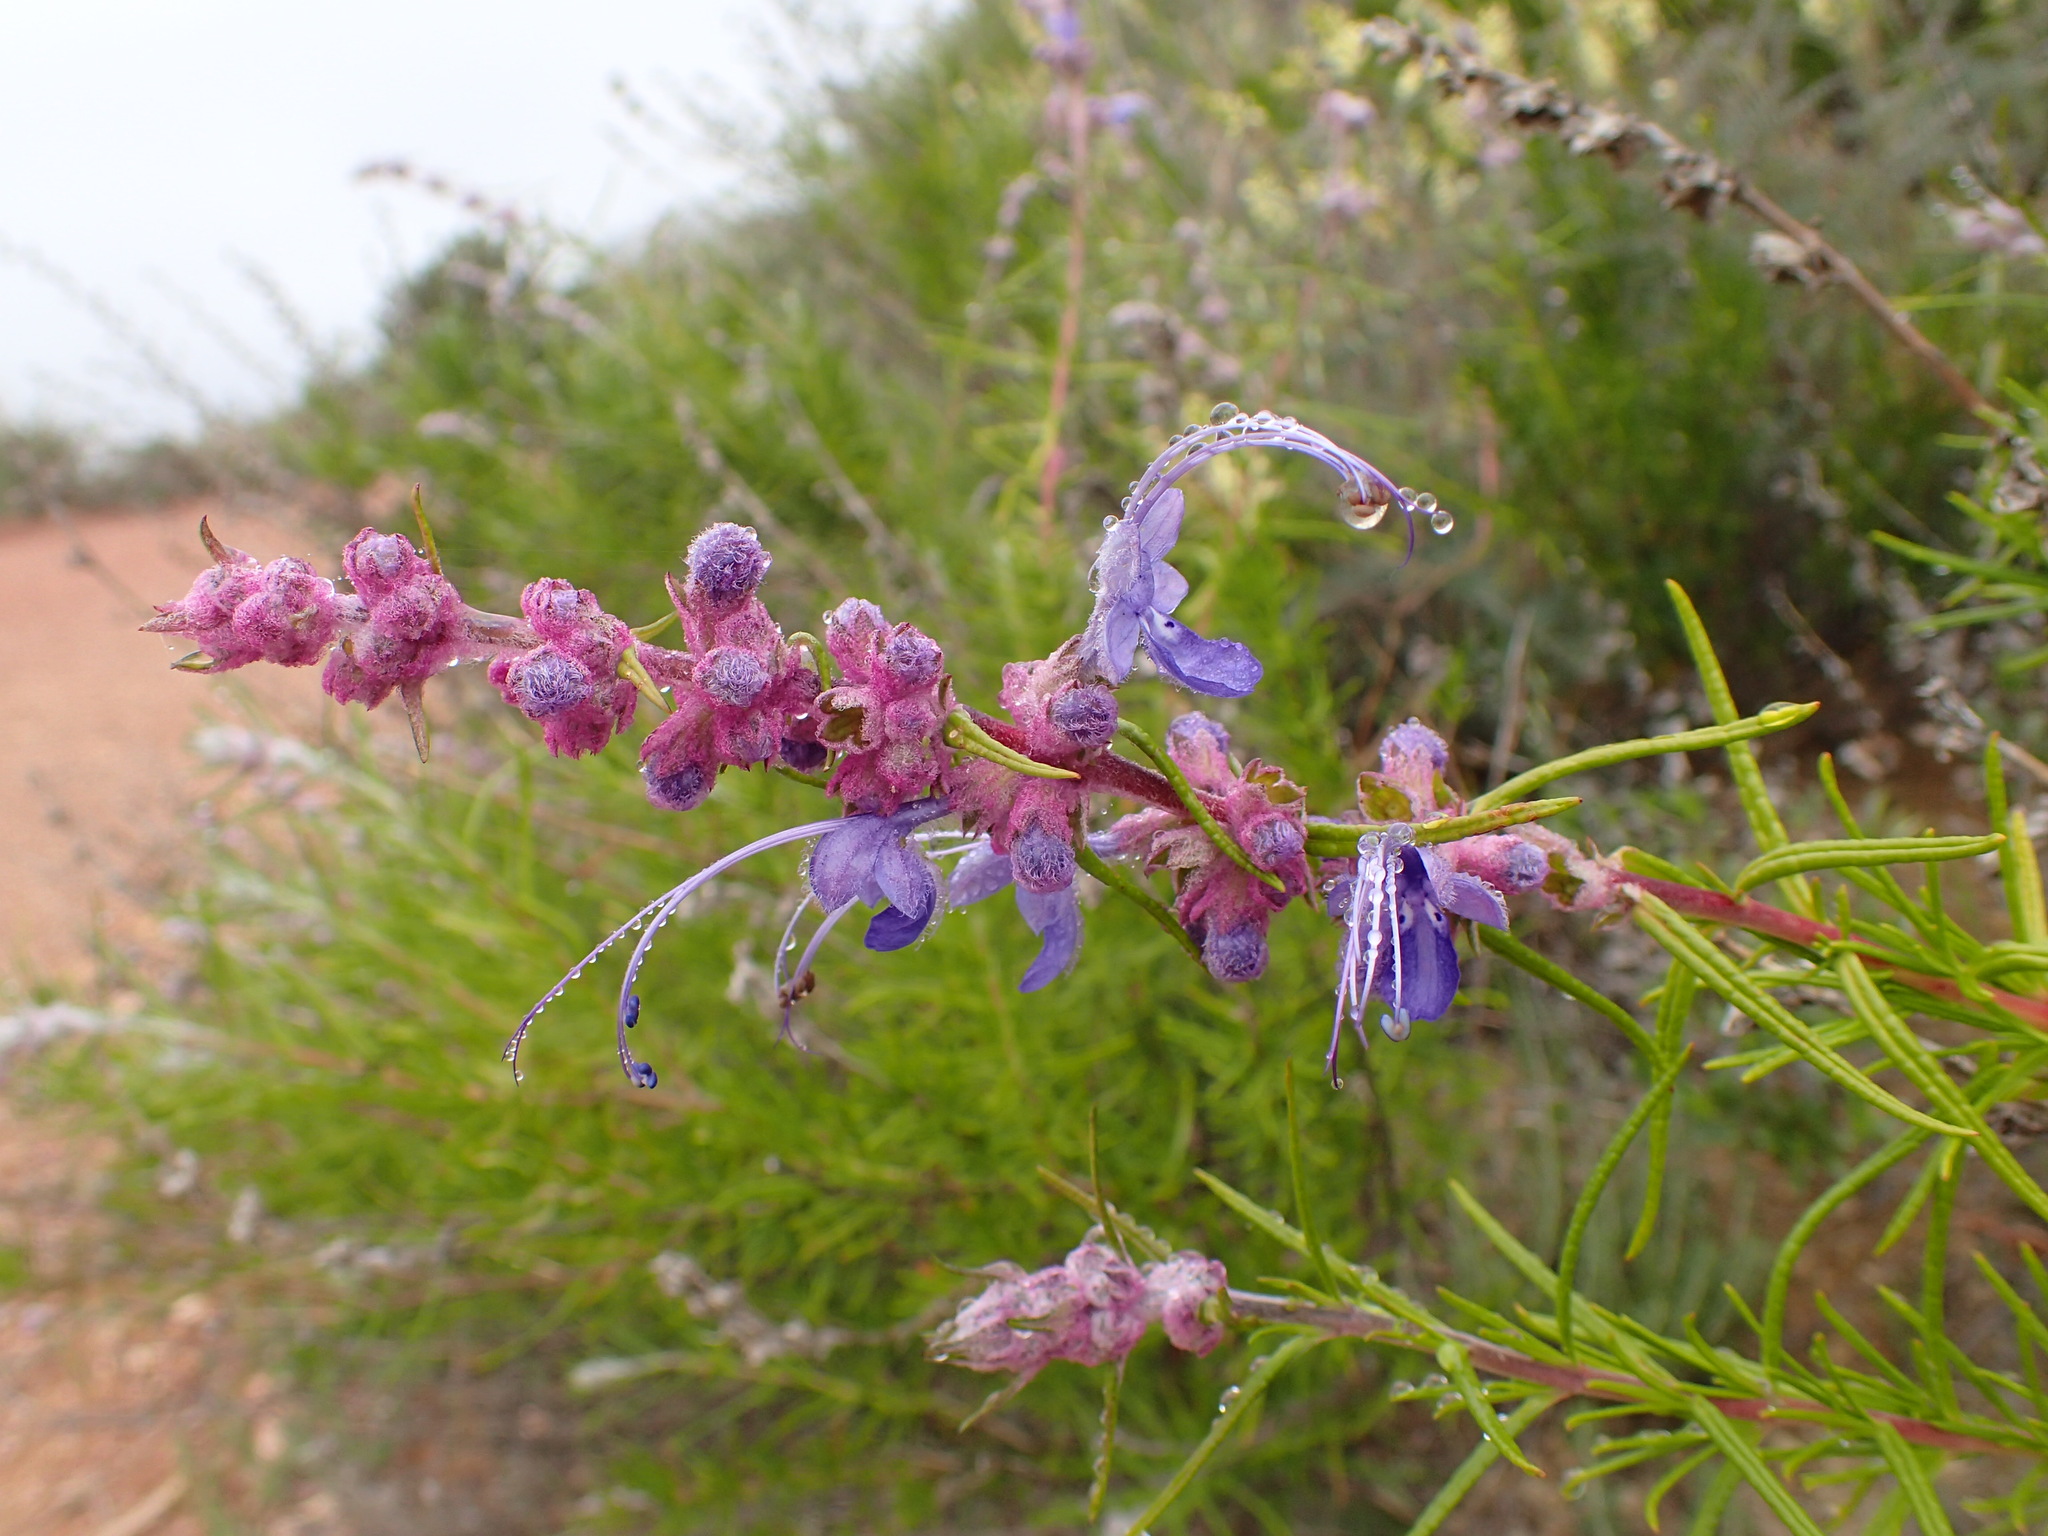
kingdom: Plantae
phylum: Tracheophyta
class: Magnoliopsida
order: Lamiales
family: Lamiaceae
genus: Trichostema
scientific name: Trichostema lanatum
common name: Woolly bluecurls
